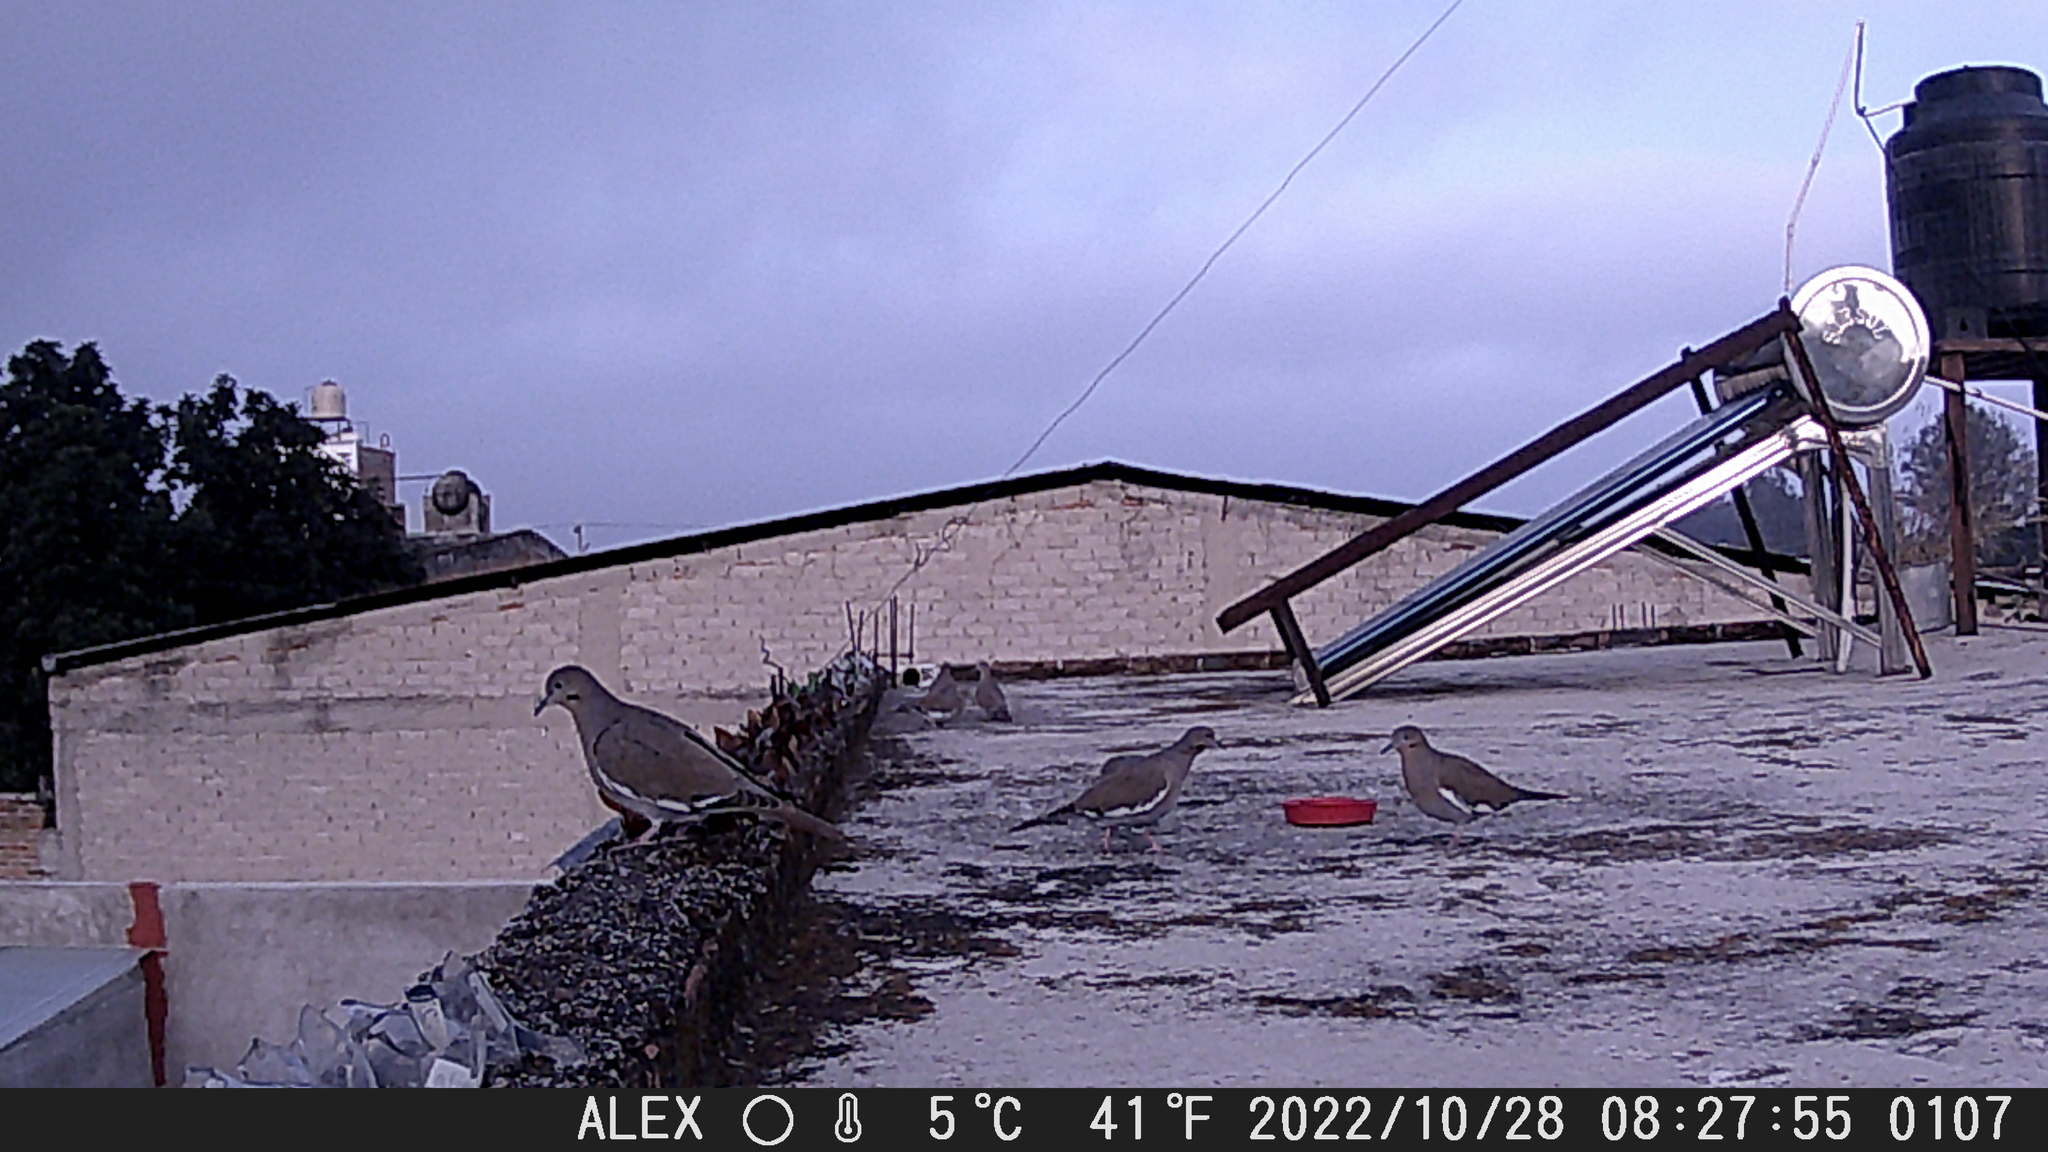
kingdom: Animalia
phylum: Chordata
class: Aves
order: Columbiformes
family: Columbidae
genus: Zenaida
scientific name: Zenaida asiatica
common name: White-winged dove
